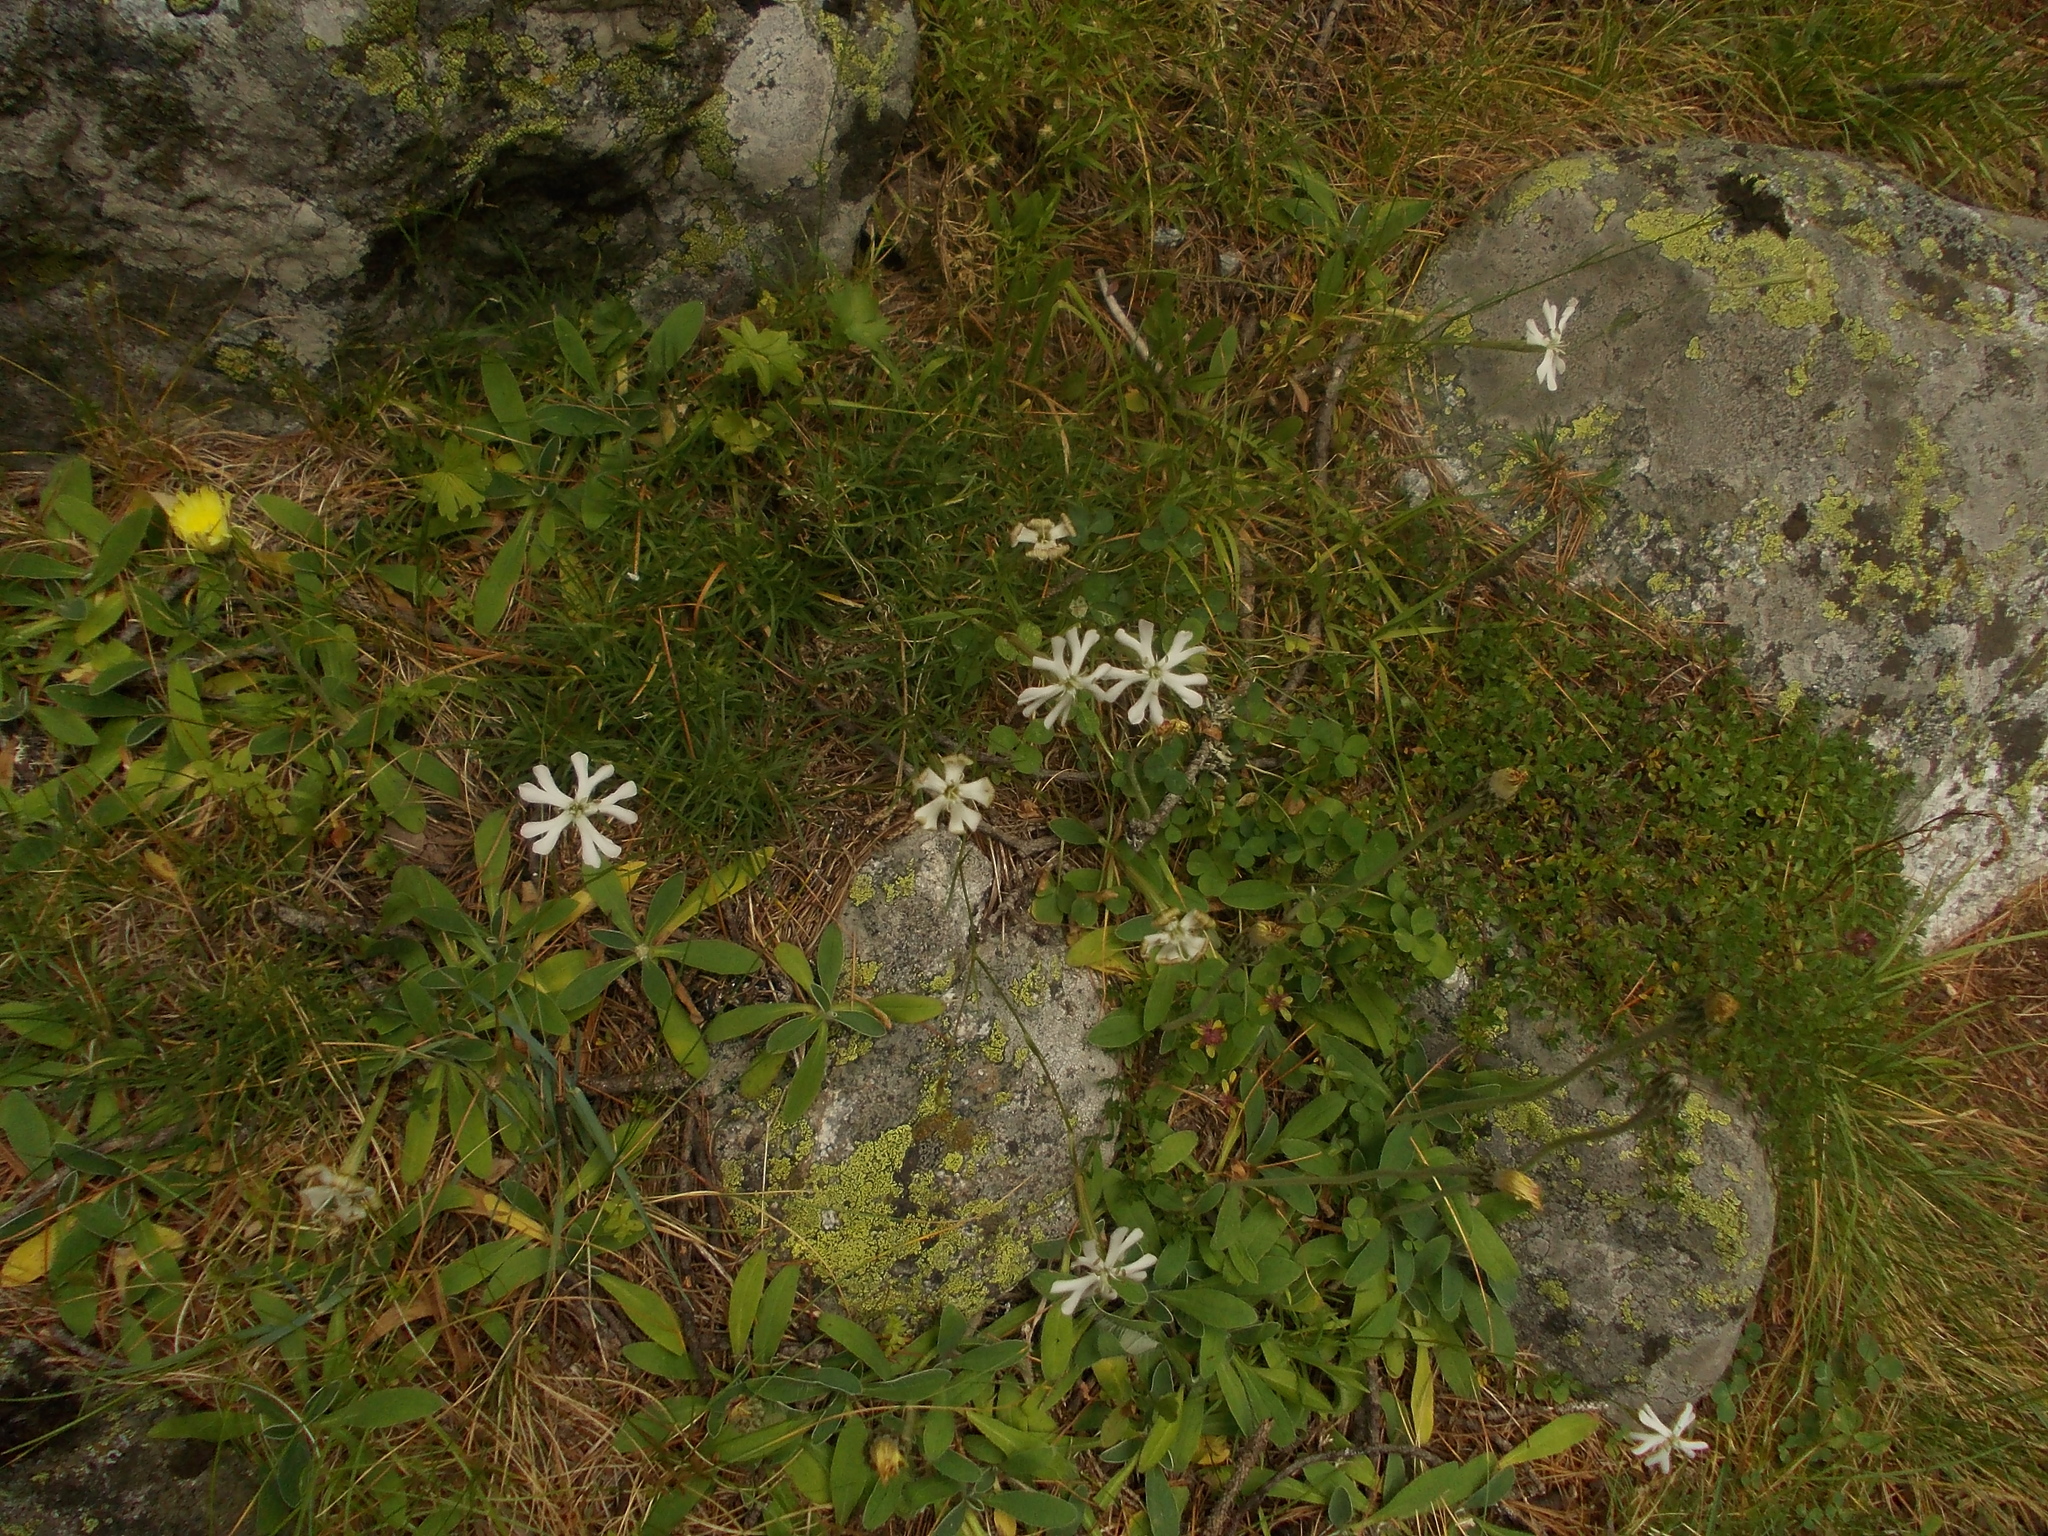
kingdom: Plantae
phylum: Tracheophyta
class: Magnoliopsida
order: Caryophyllales
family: Caryophyllaceae
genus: Silene
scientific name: Silene waldsteinii
